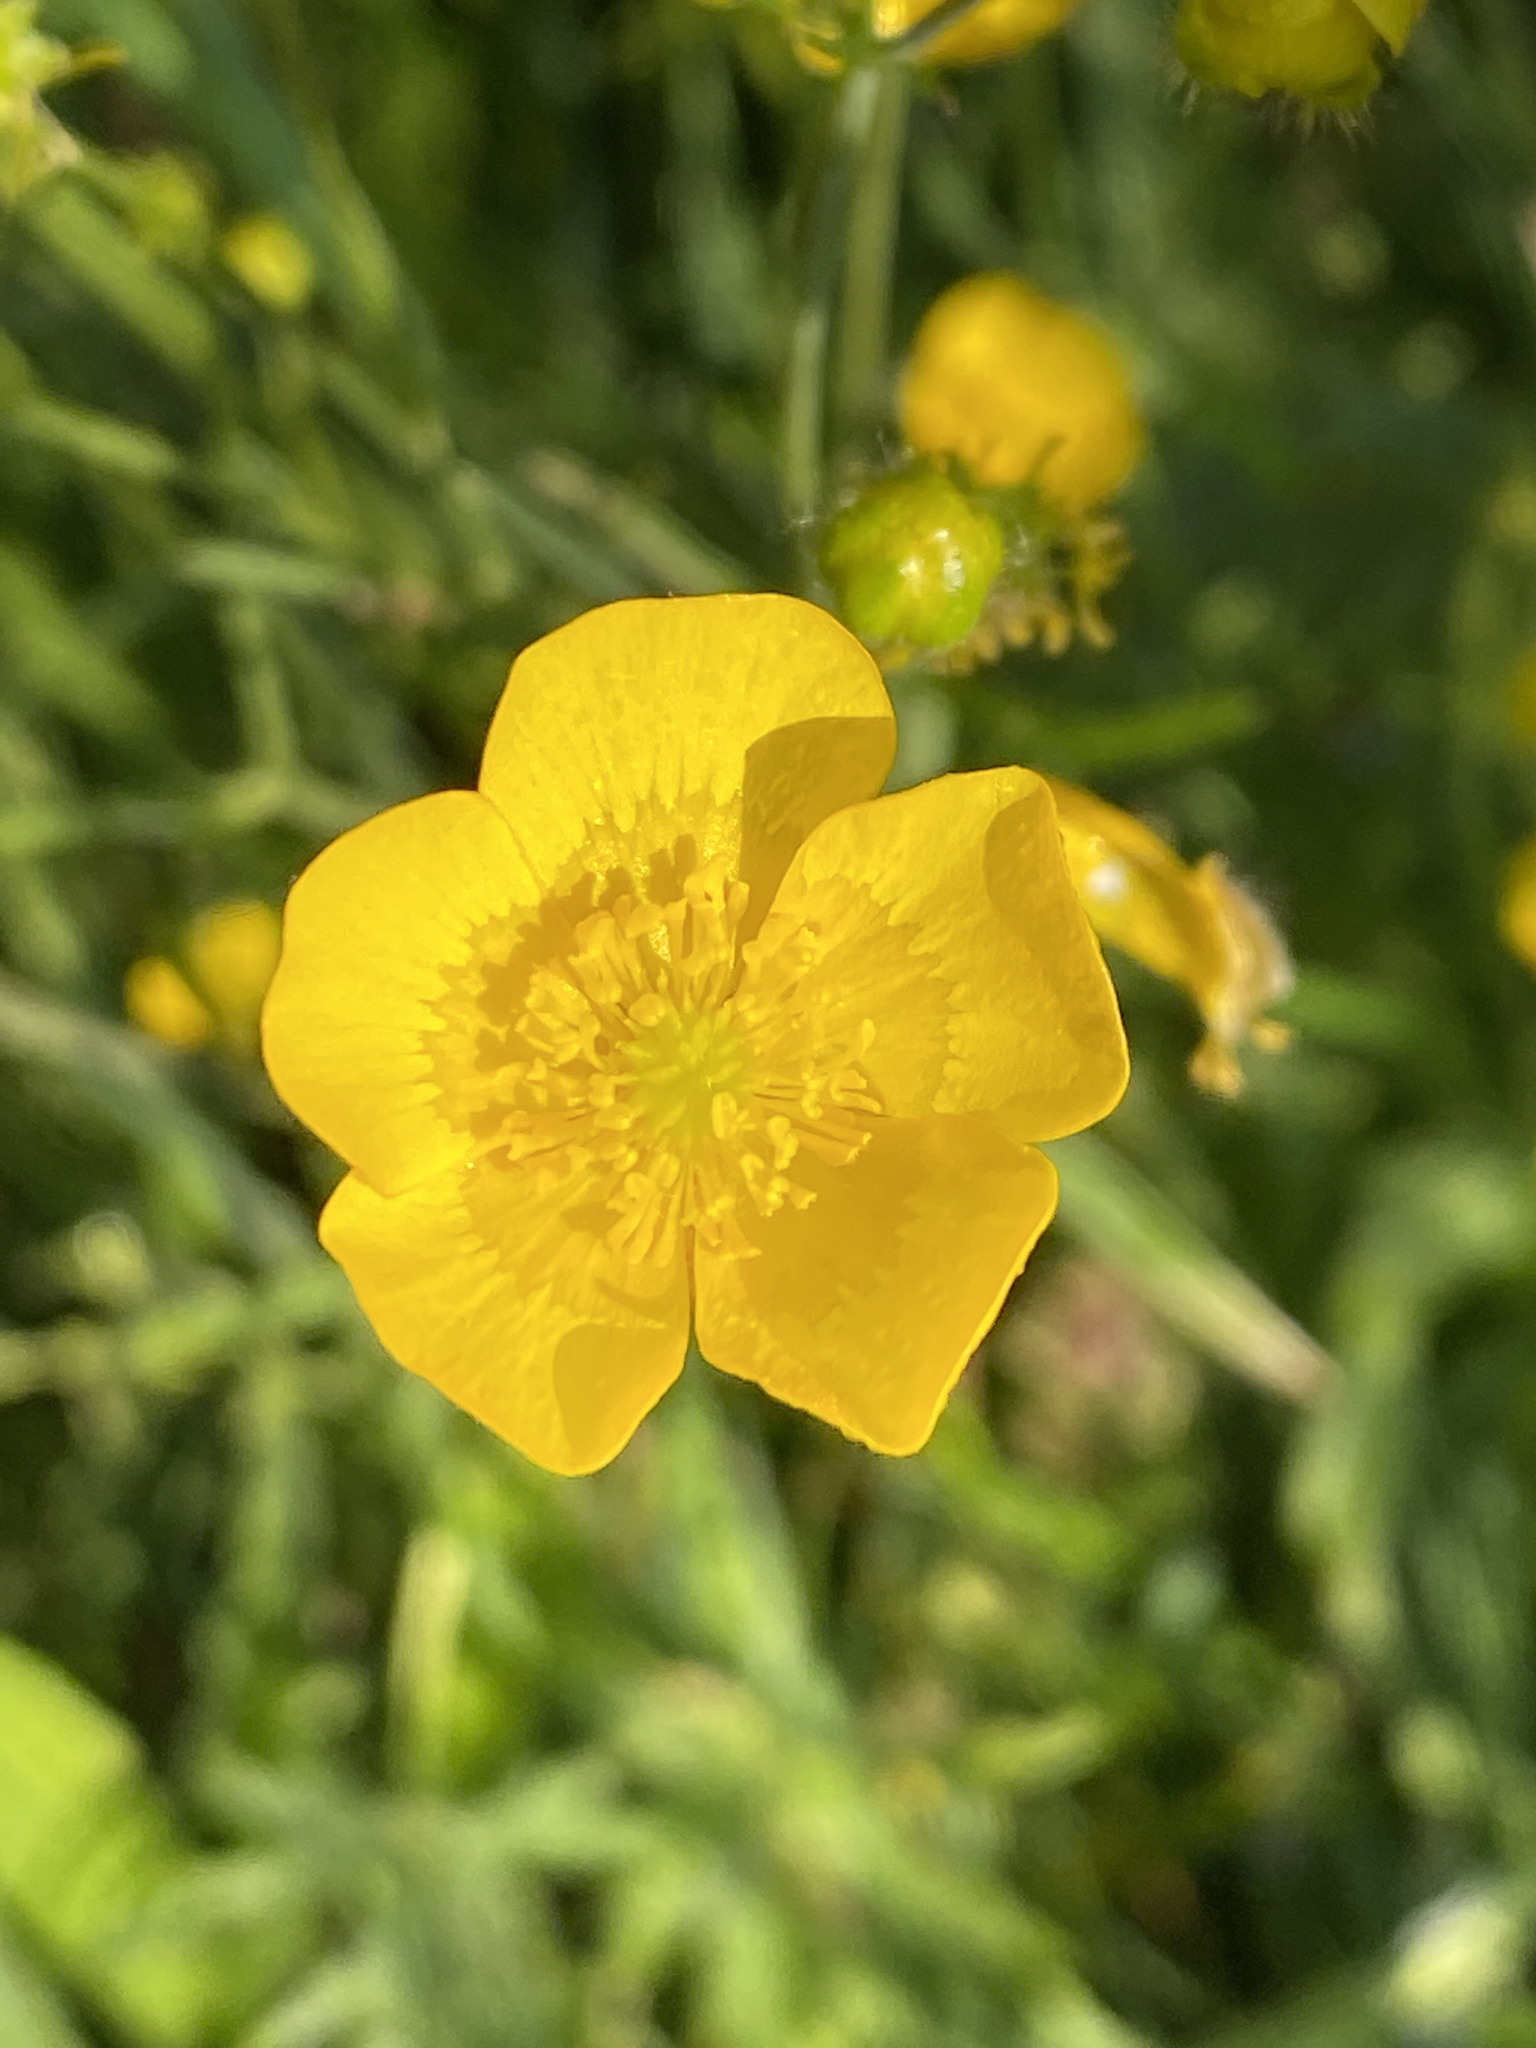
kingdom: Plantae
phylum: Tracheophyta
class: Magnoliopsida
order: Ranunculales
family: Ranunculaceae
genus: Ranunculus
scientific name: Ranunculus acris
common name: Meadow buttercup
